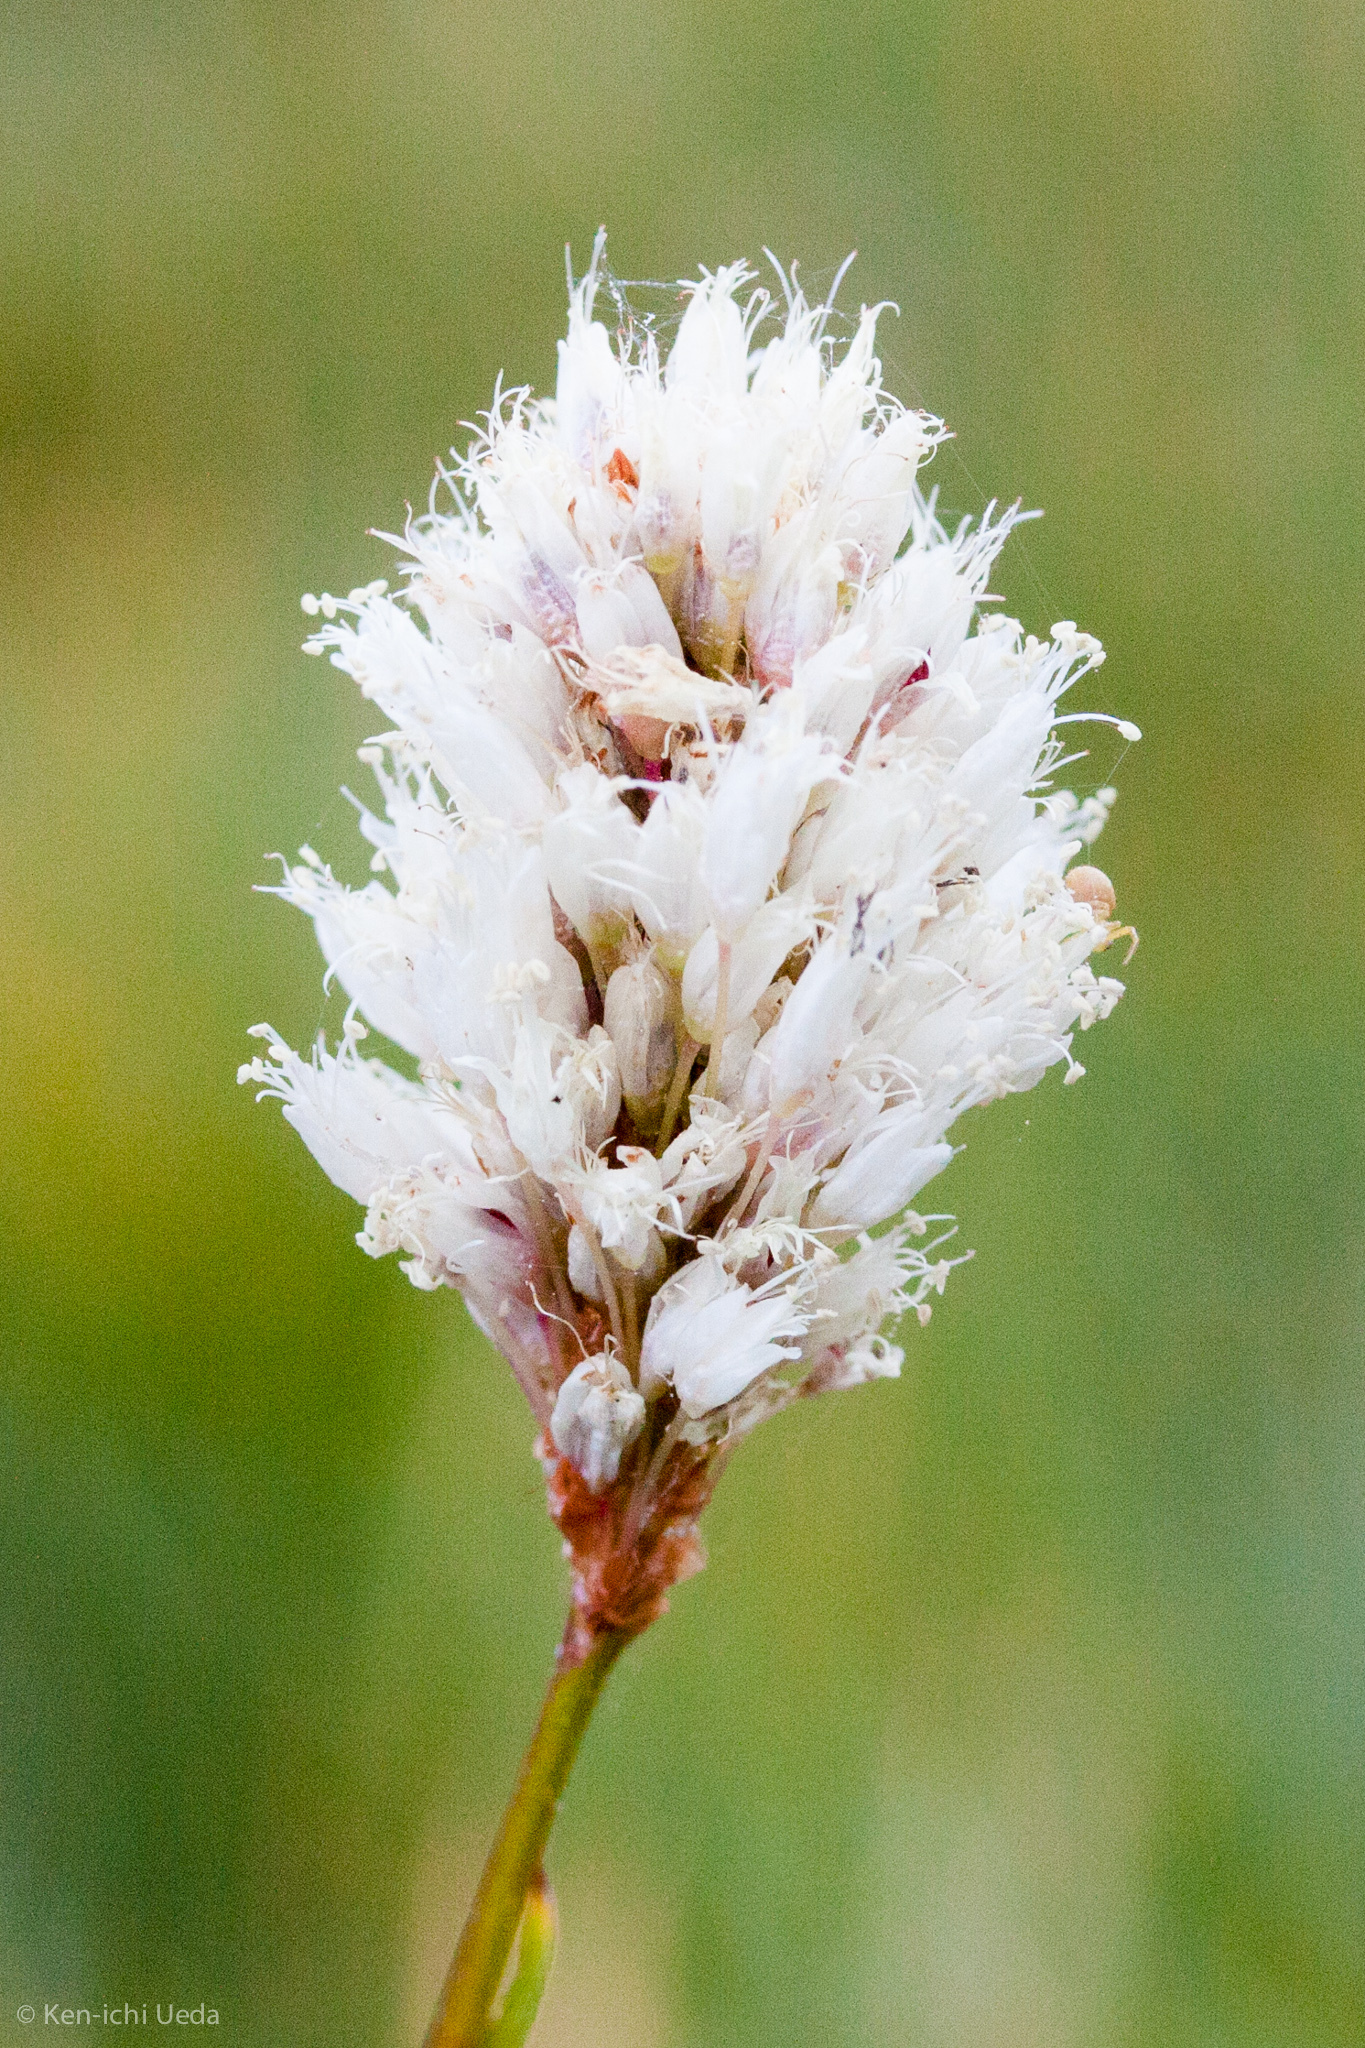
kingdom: Plantae
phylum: Tracheophyta
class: Magnoliopsida
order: Caryophyllales
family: Polygonaceae
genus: Bistorta
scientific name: Bistorta bistortoides
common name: American bistort
